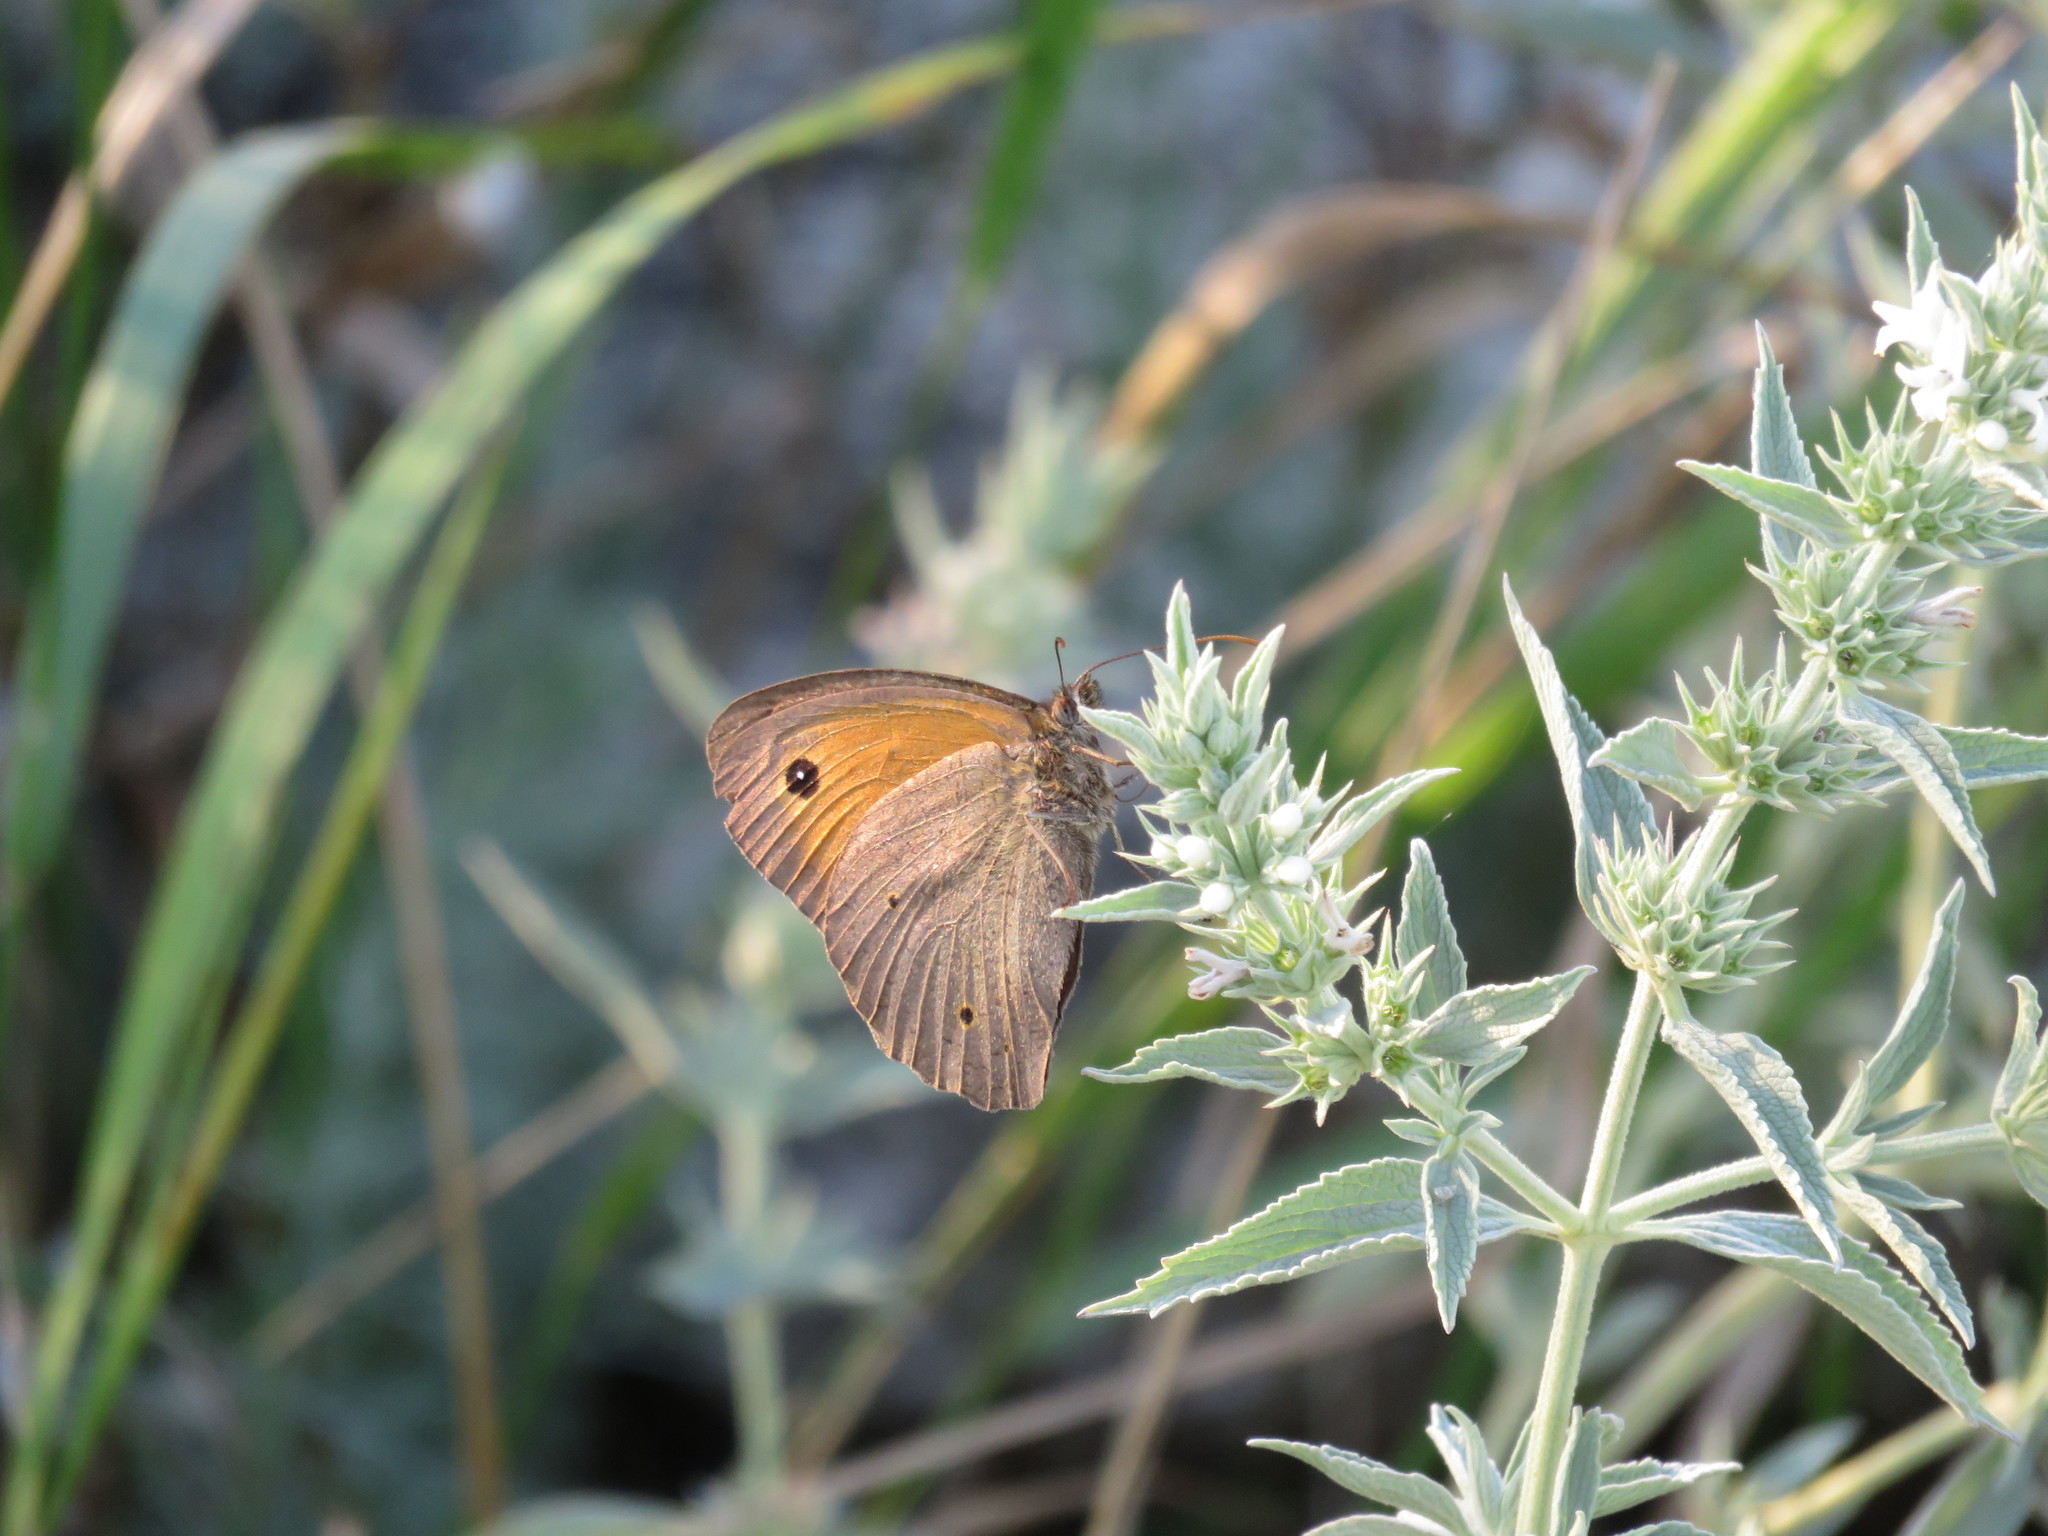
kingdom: Animalia
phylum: Arthropoda
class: Insecta
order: Lepidoptera
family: Nymphalidae
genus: Maniola
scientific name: Maniola jurtina
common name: Meadow brown
